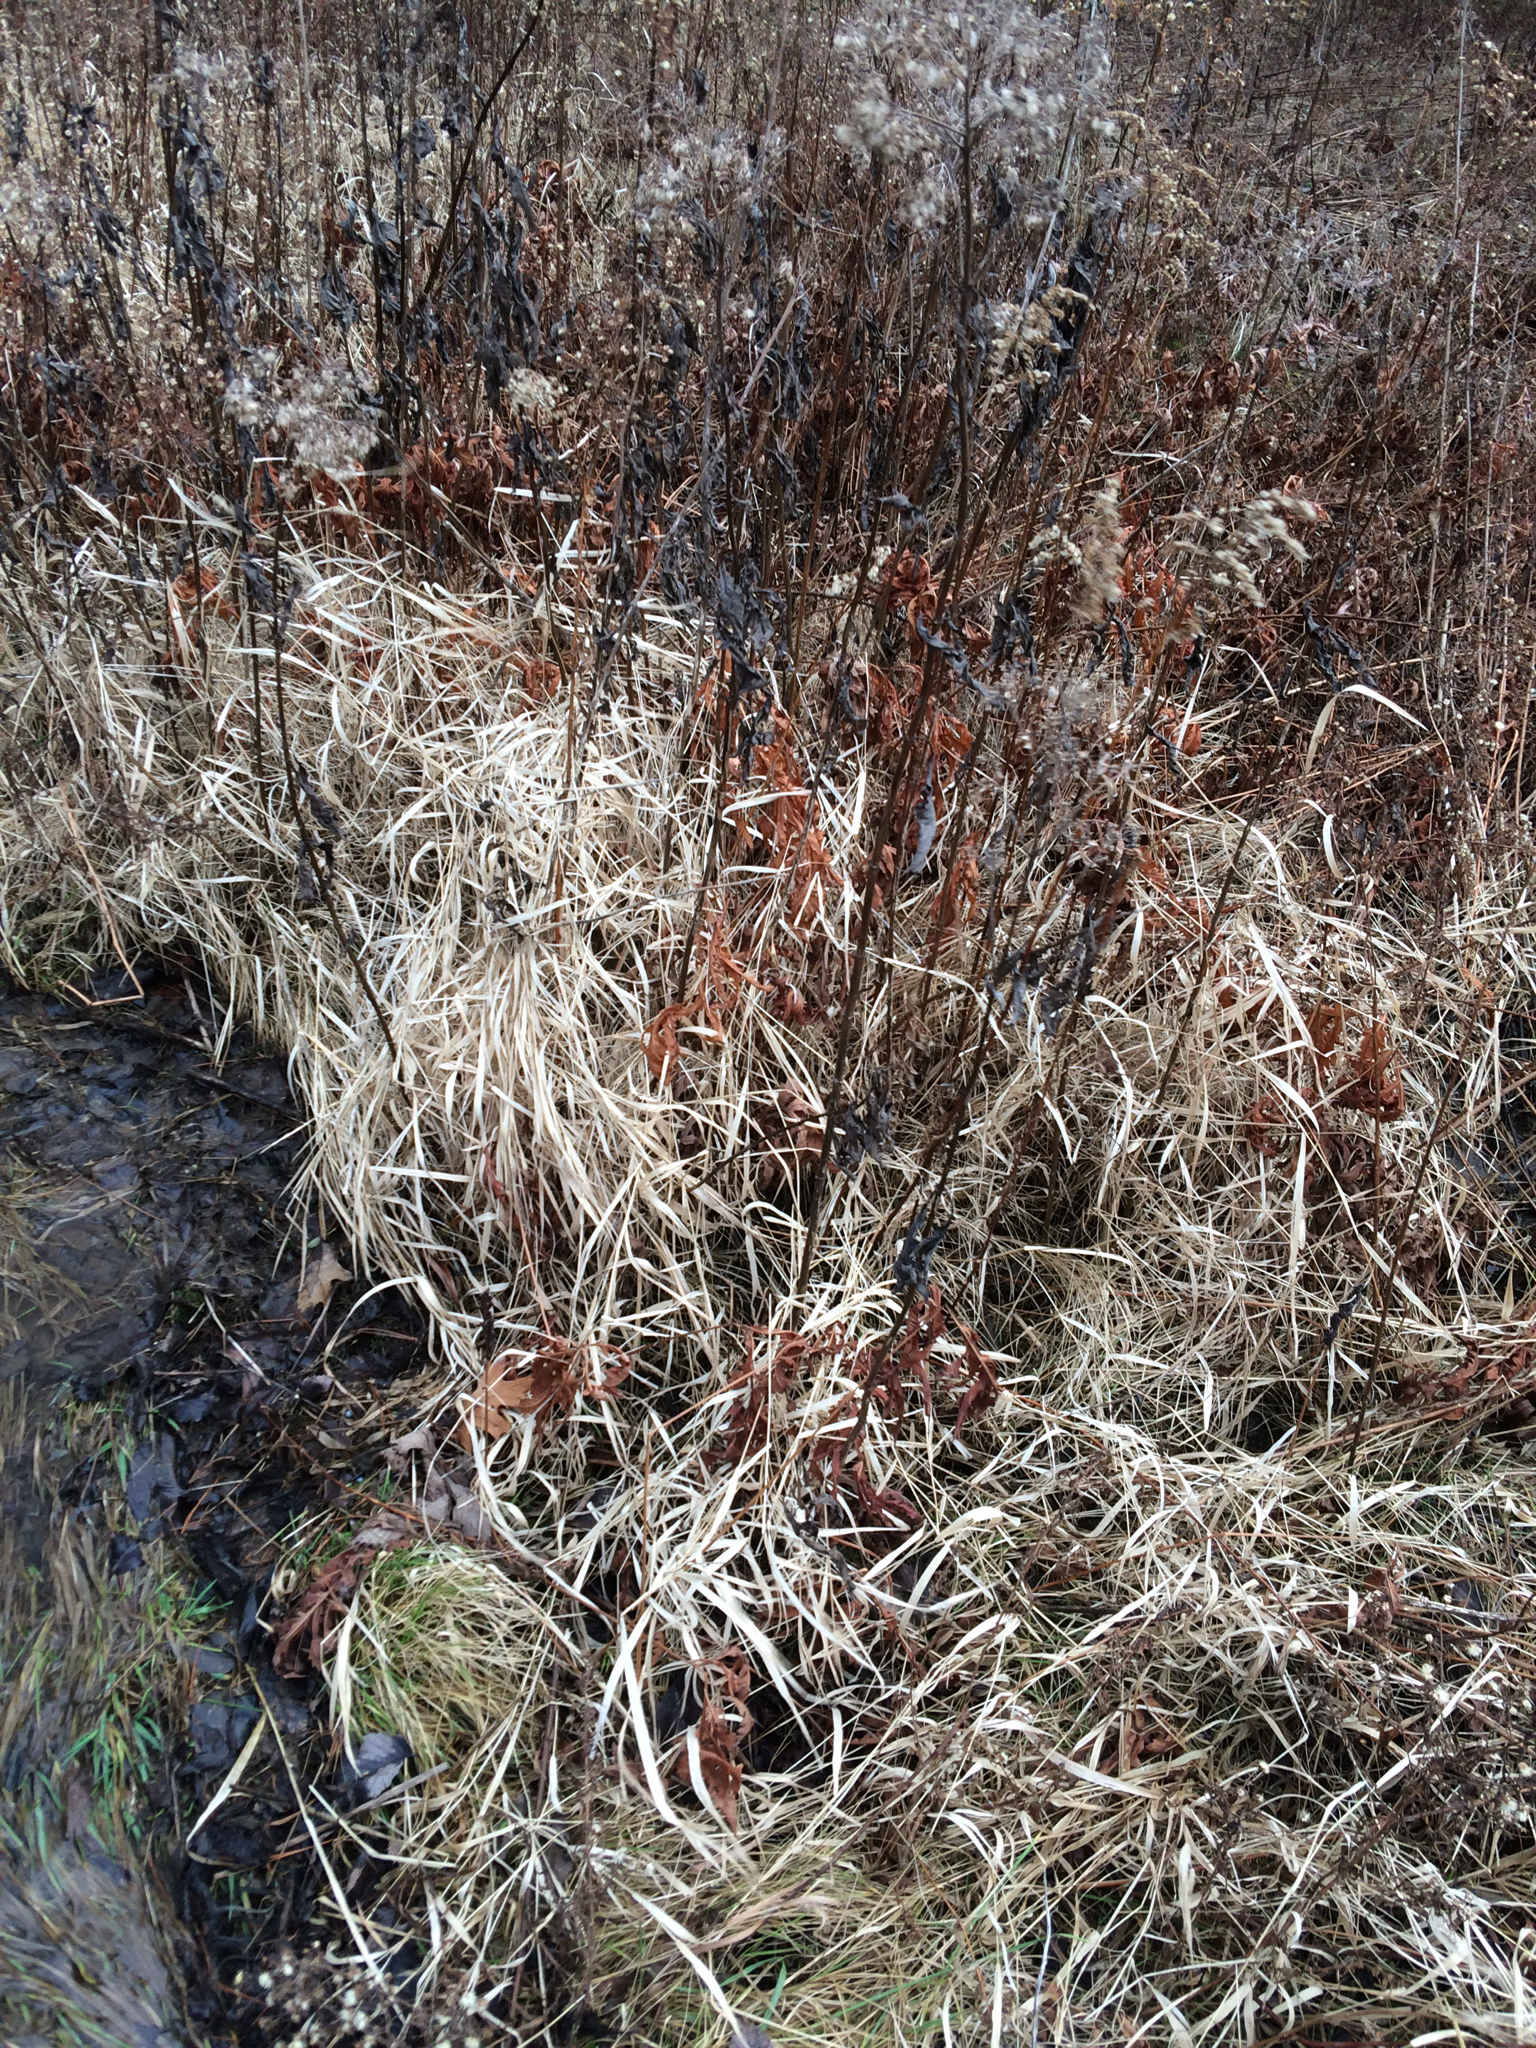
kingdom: Plantae
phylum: Tracheophyta
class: Polypodiopsida
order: Polypodiales
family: Onocleaceae
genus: Onoclea
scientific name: Onoclea sensibilis
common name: Sensitive fern
